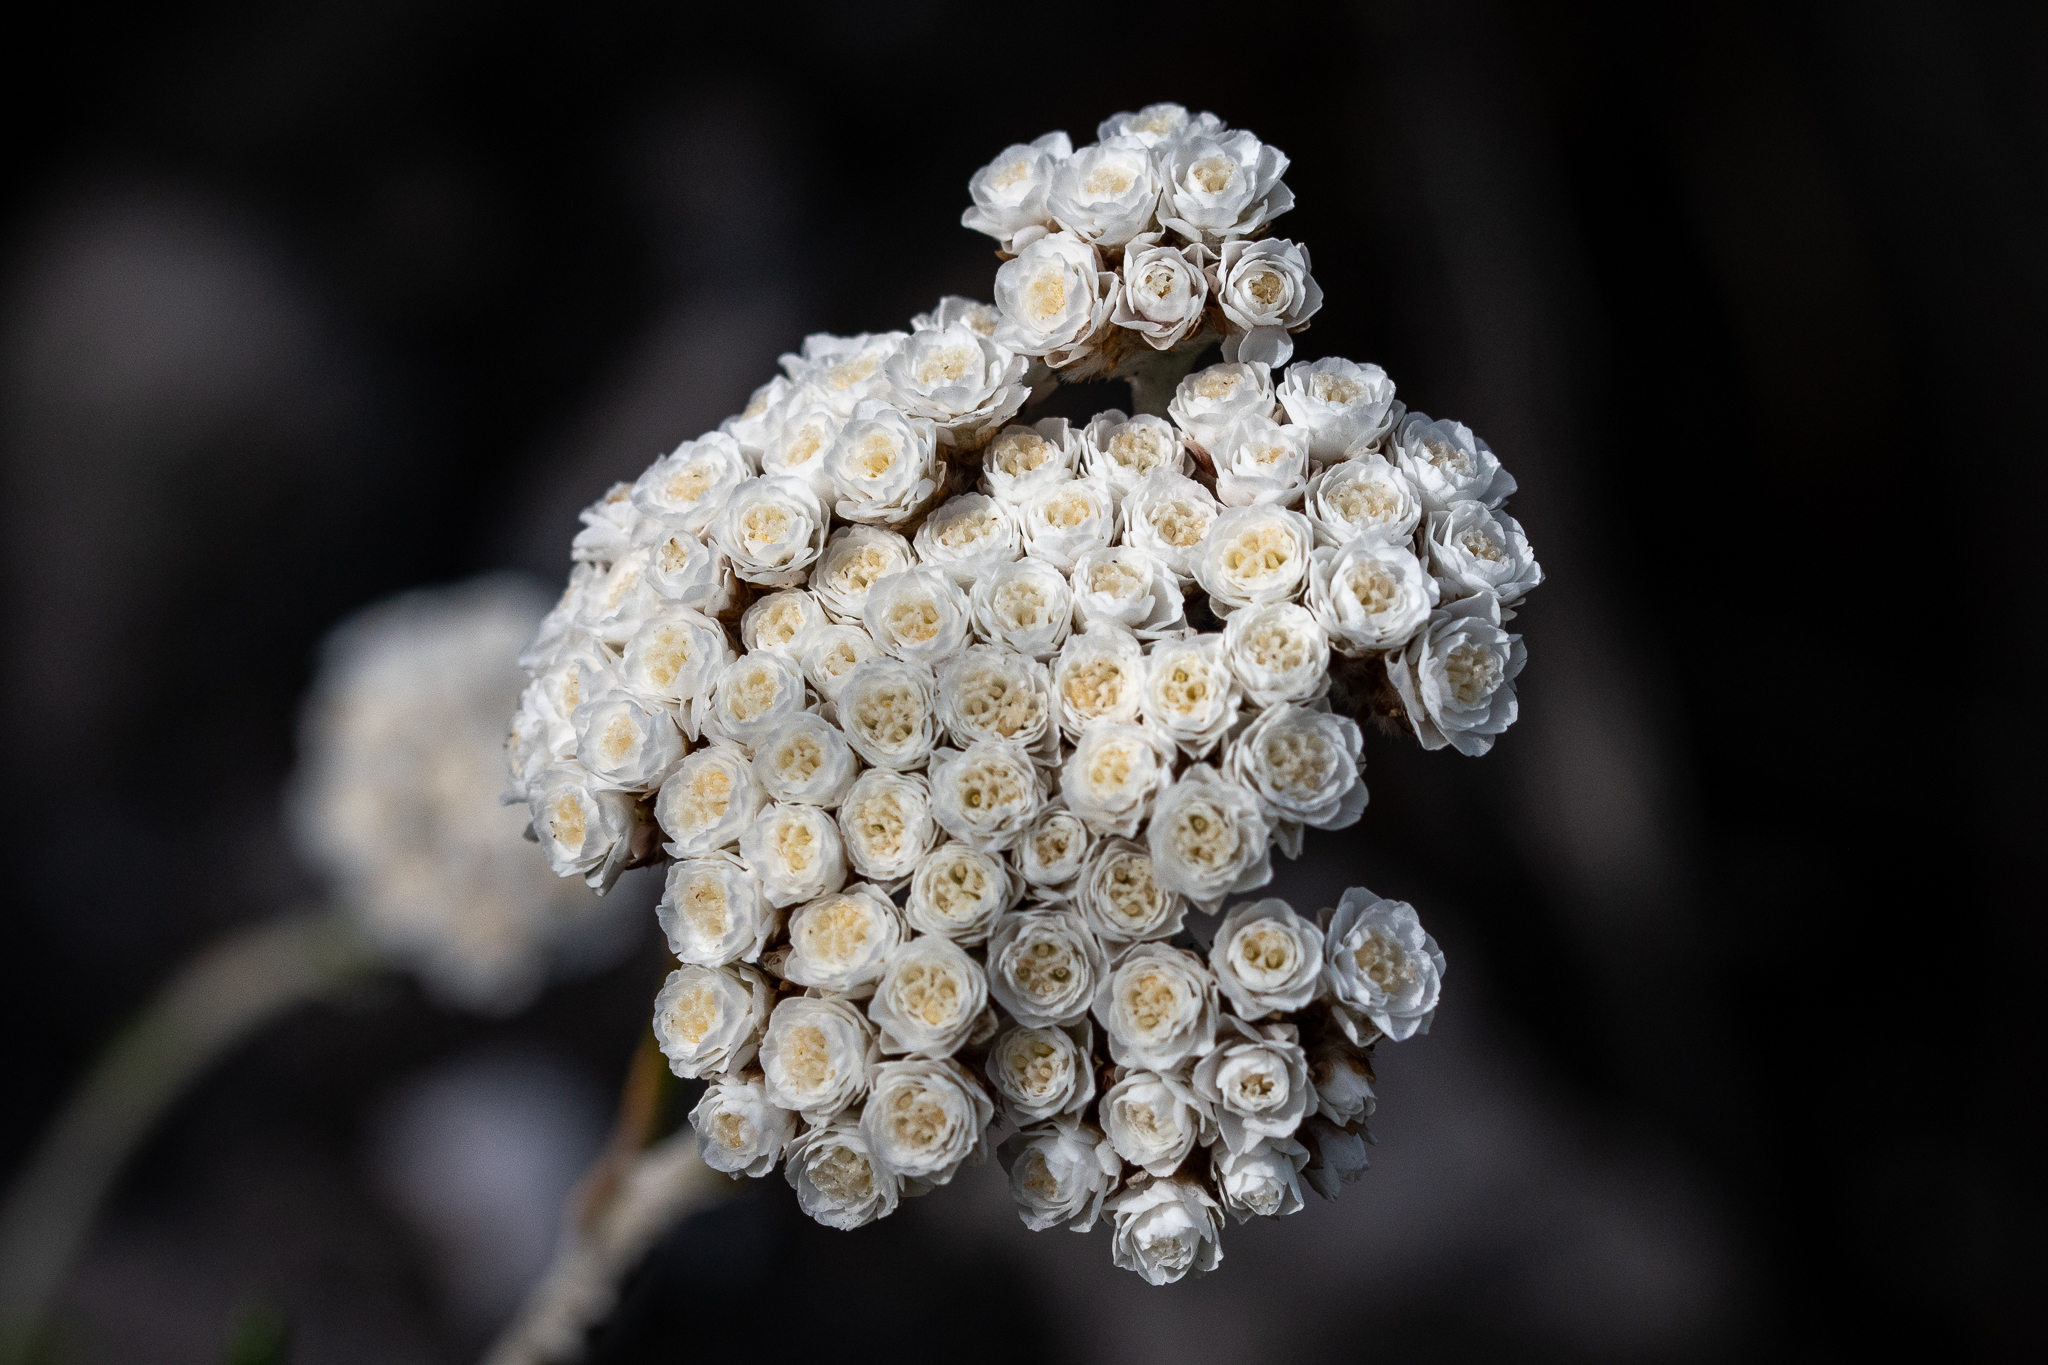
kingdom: Plantae
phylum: Tracheophyta
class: Magnoliopsida
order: Asterales
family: Asteraceae
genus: Anaxeton
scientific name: Anaxeton asperum
